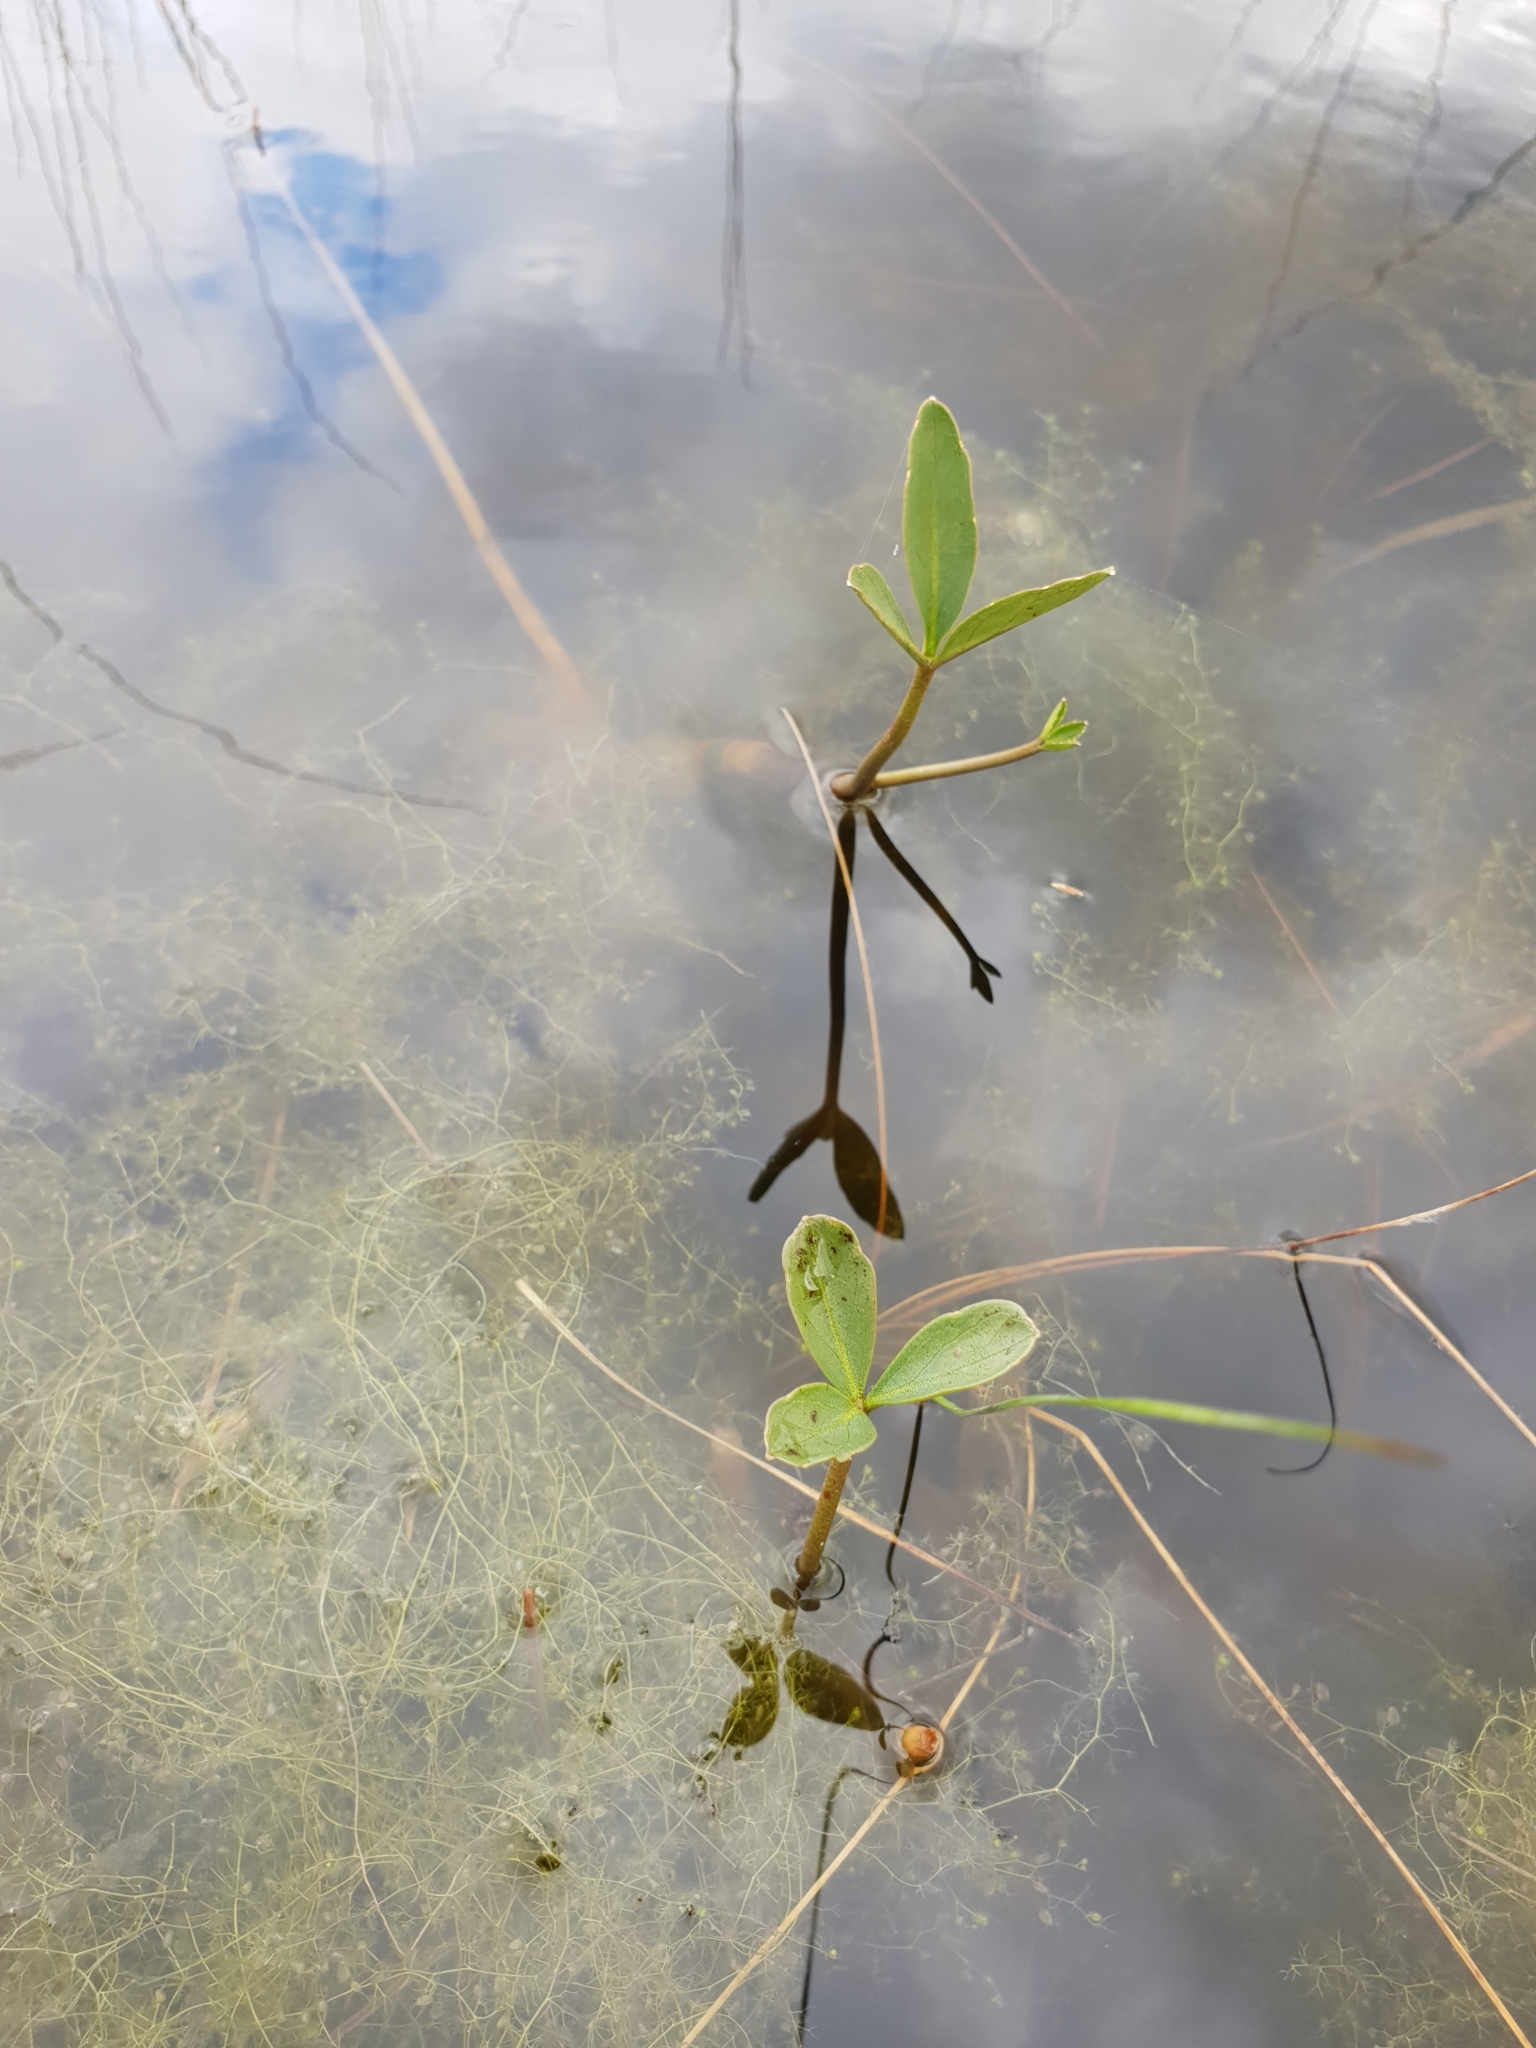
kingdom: Plantae
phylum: Tracheophyta
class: Magnoliopsida
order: Asterales
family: Menyanthaceae
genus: Menyanthes
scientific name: Menyanthes trifoliata
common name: Bogbean
